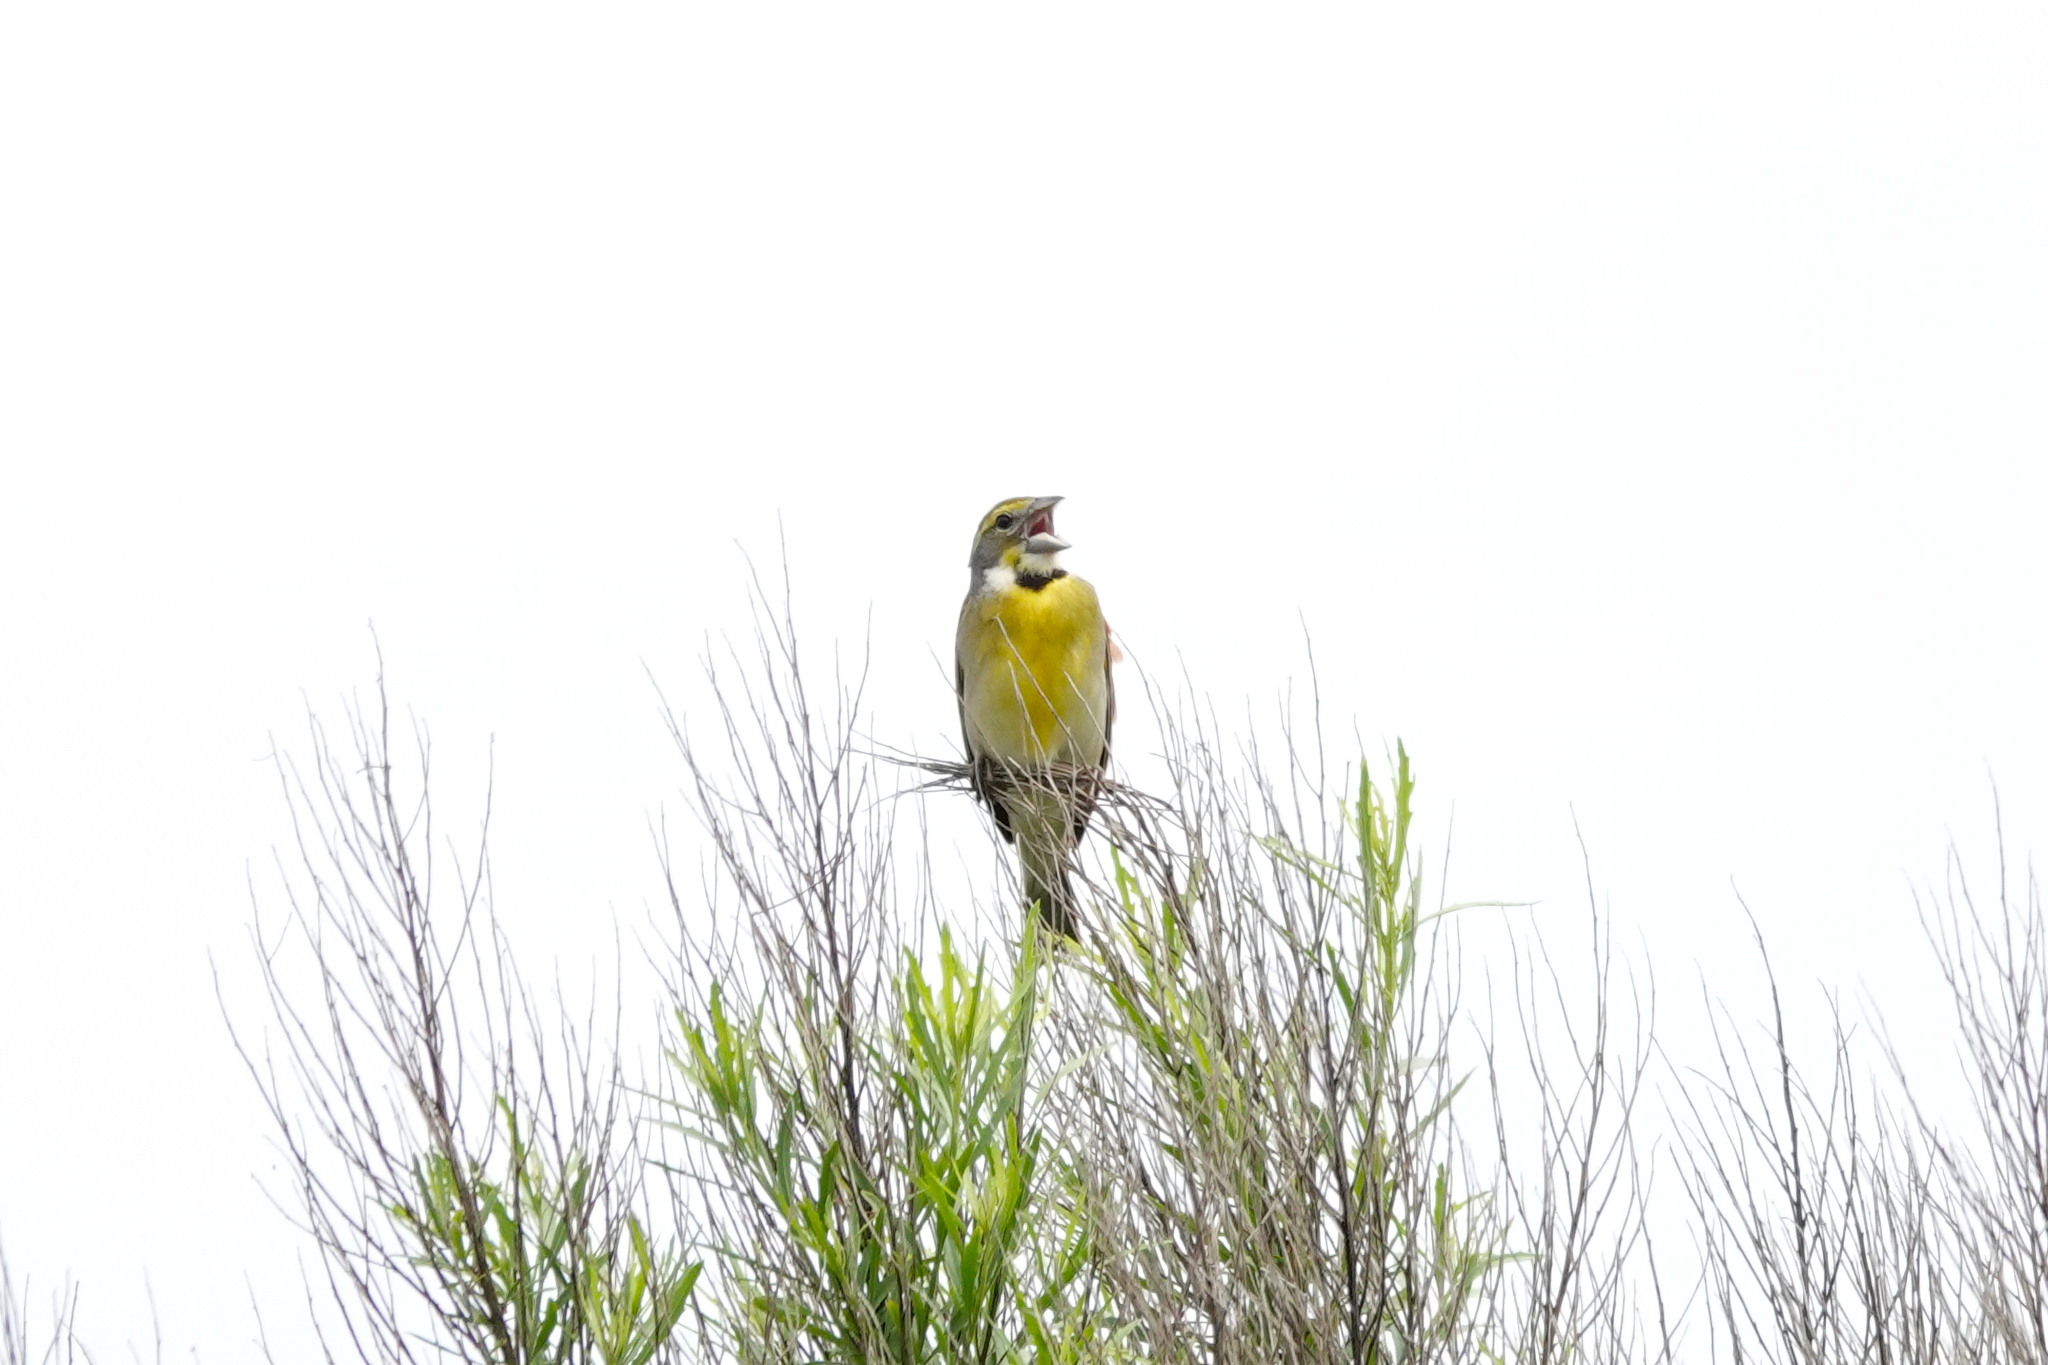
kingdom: Animalia
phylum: Chordata
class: Aves
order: Passeriformes
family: Cardinalidae
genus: Spiza
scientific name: Spiza americana
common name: Dickcissel
